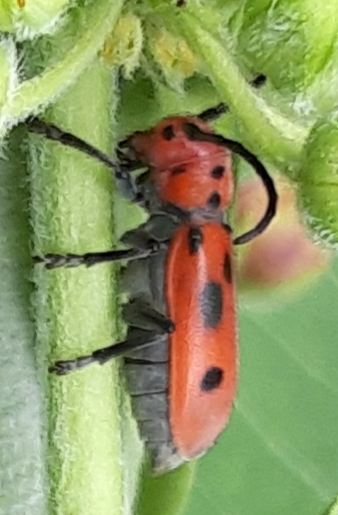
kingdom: Animalia
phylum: Arthropoda
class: Insecta
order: Coleoptera
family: Cerambycidae
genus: Tetraopes
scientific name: Tetraopes tetrophthalmus
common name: Red milkweed beetle
